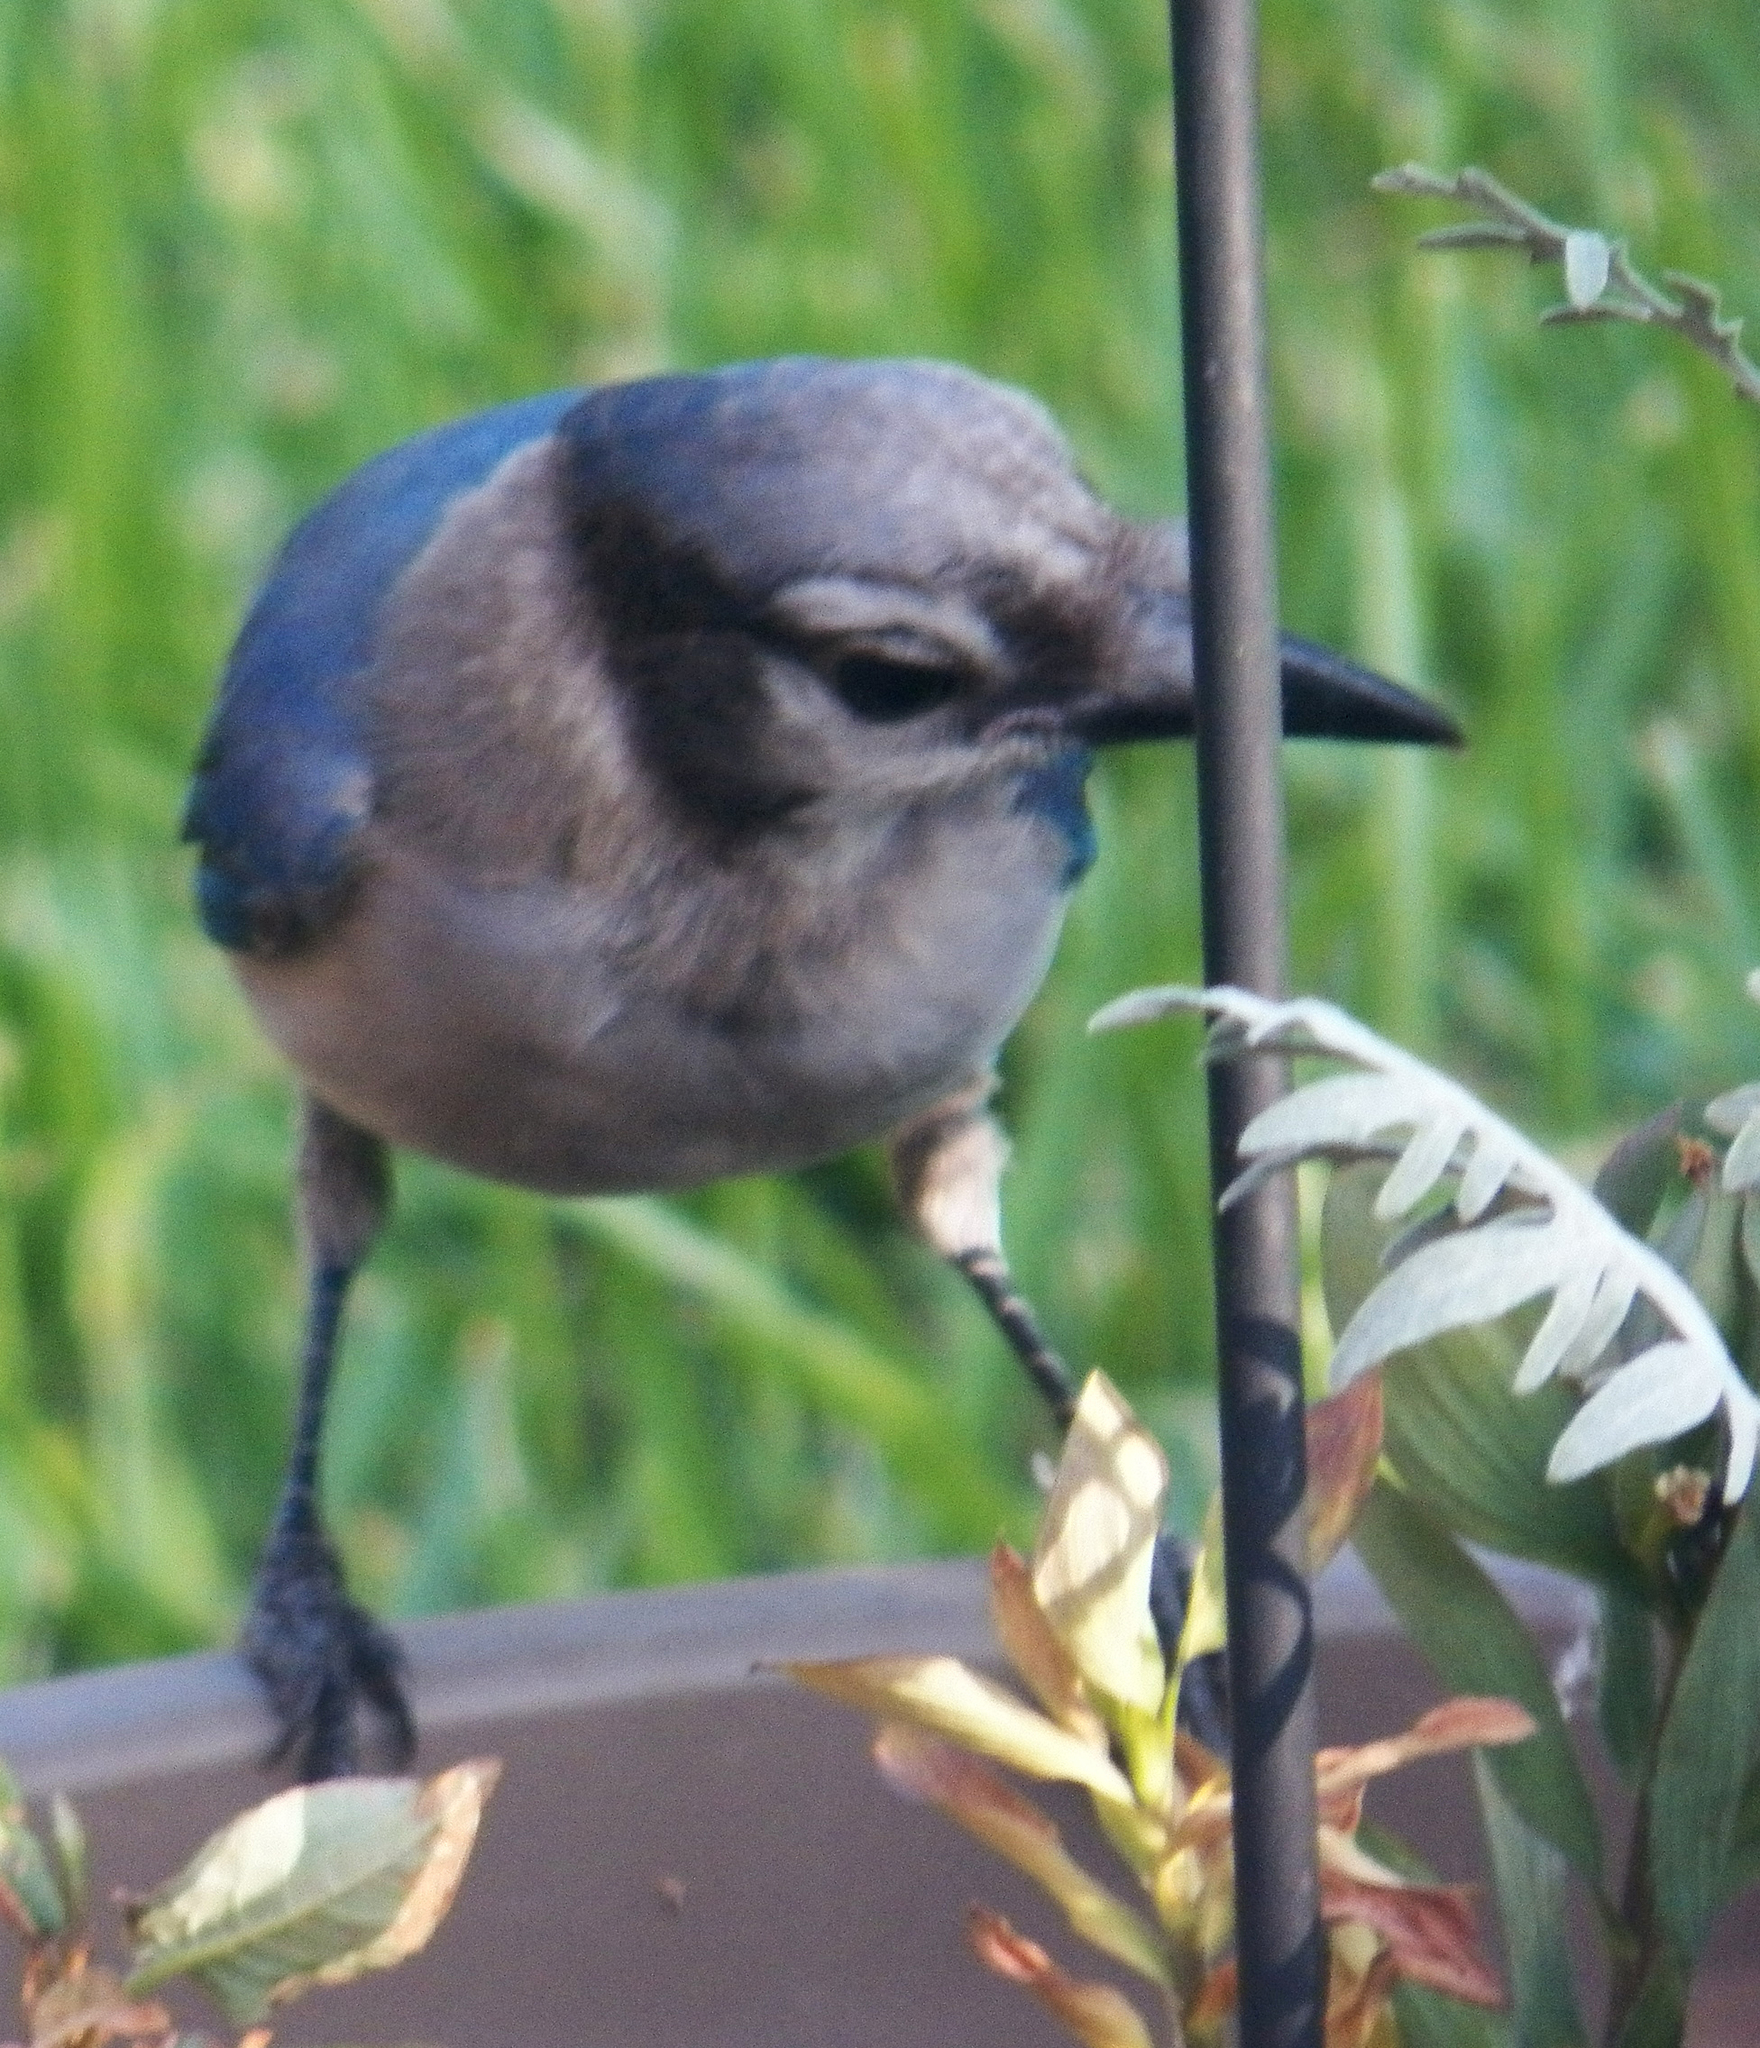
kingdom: Animalia
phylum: Chordata
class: Aves
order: Passeriformes
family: Corvidae
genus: Cyanocitta
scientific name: Cyanocitta cristata
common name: Blue jay
